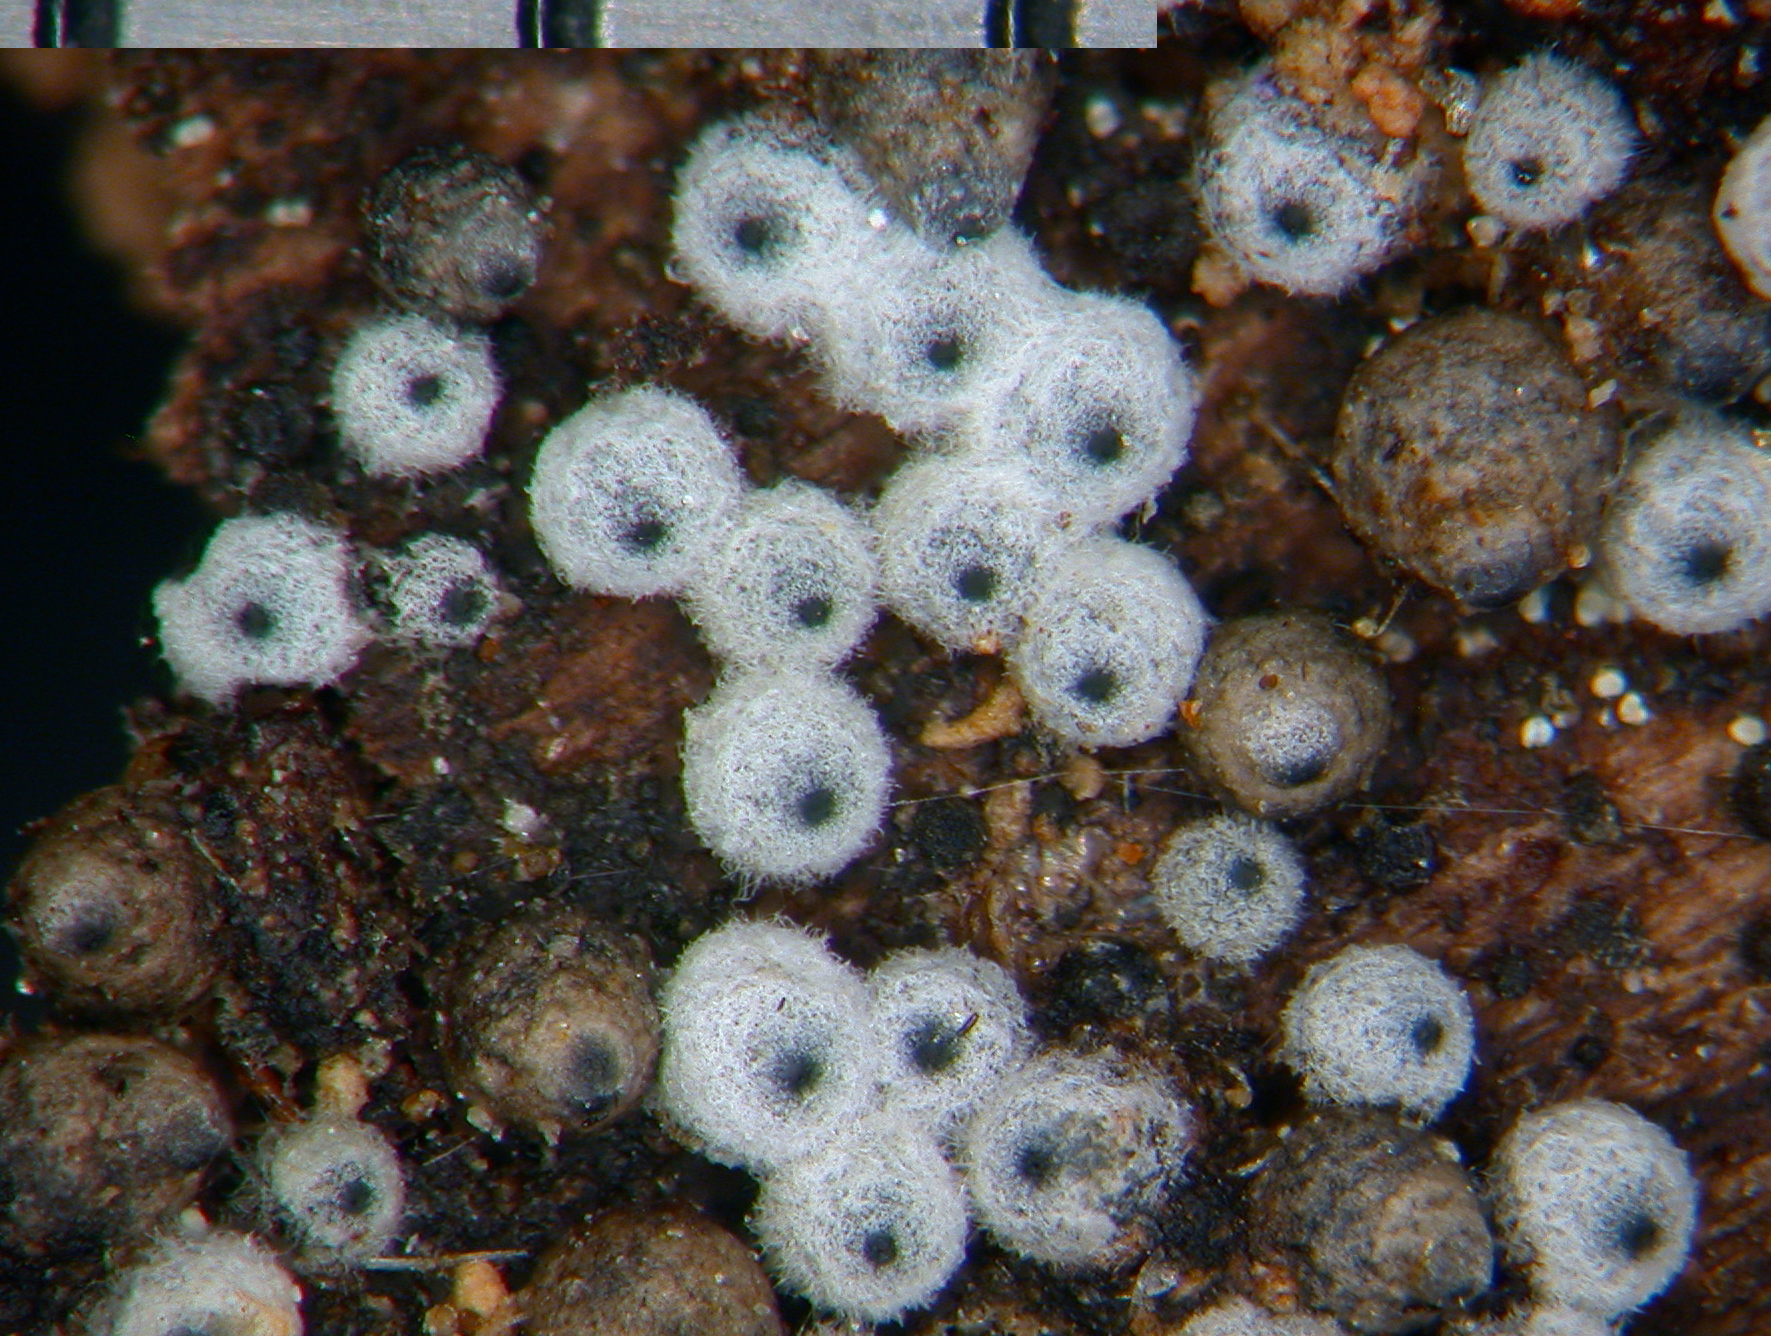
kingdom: Fungi
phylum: Ascomycota
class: Sordariomycetes
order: Sordariales
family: Lasiosphaeriaceae
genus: Lasiosphaeria
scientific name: Lasiosphaeria sorbina
